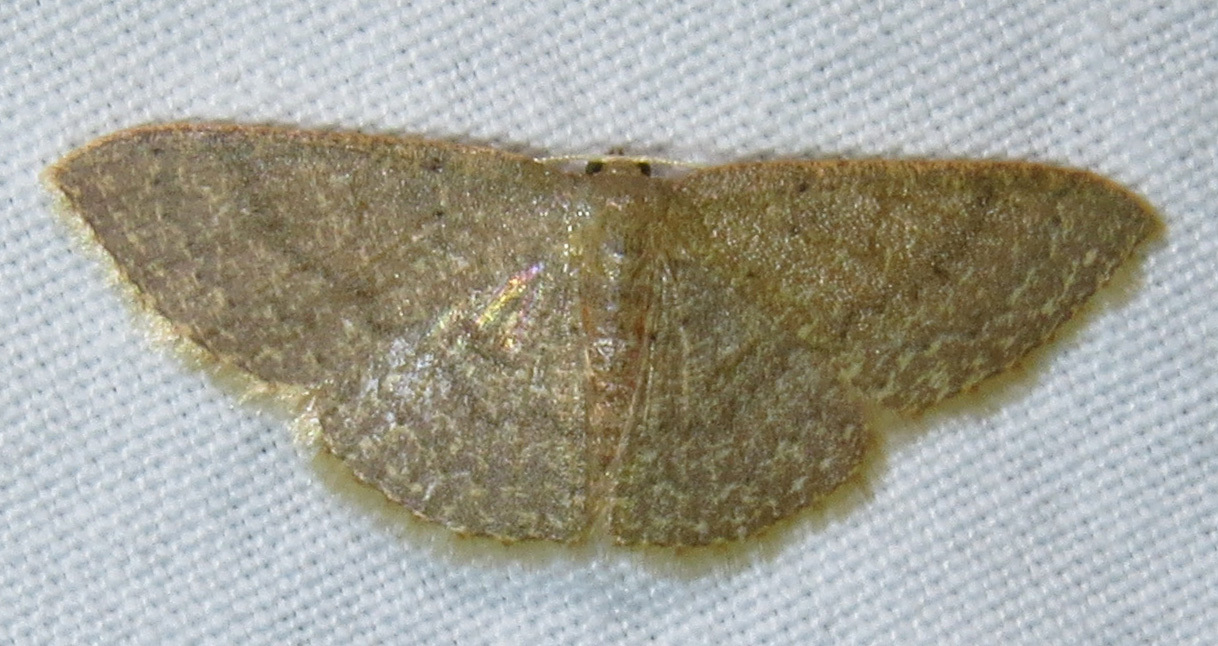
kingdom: Animalia
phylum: Arthropoda
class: Insecta
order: Lepidoptera
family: Geometridae
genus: Pleuroprucha
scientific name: Pleuroprucha insulsaria
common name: Common tan wave
